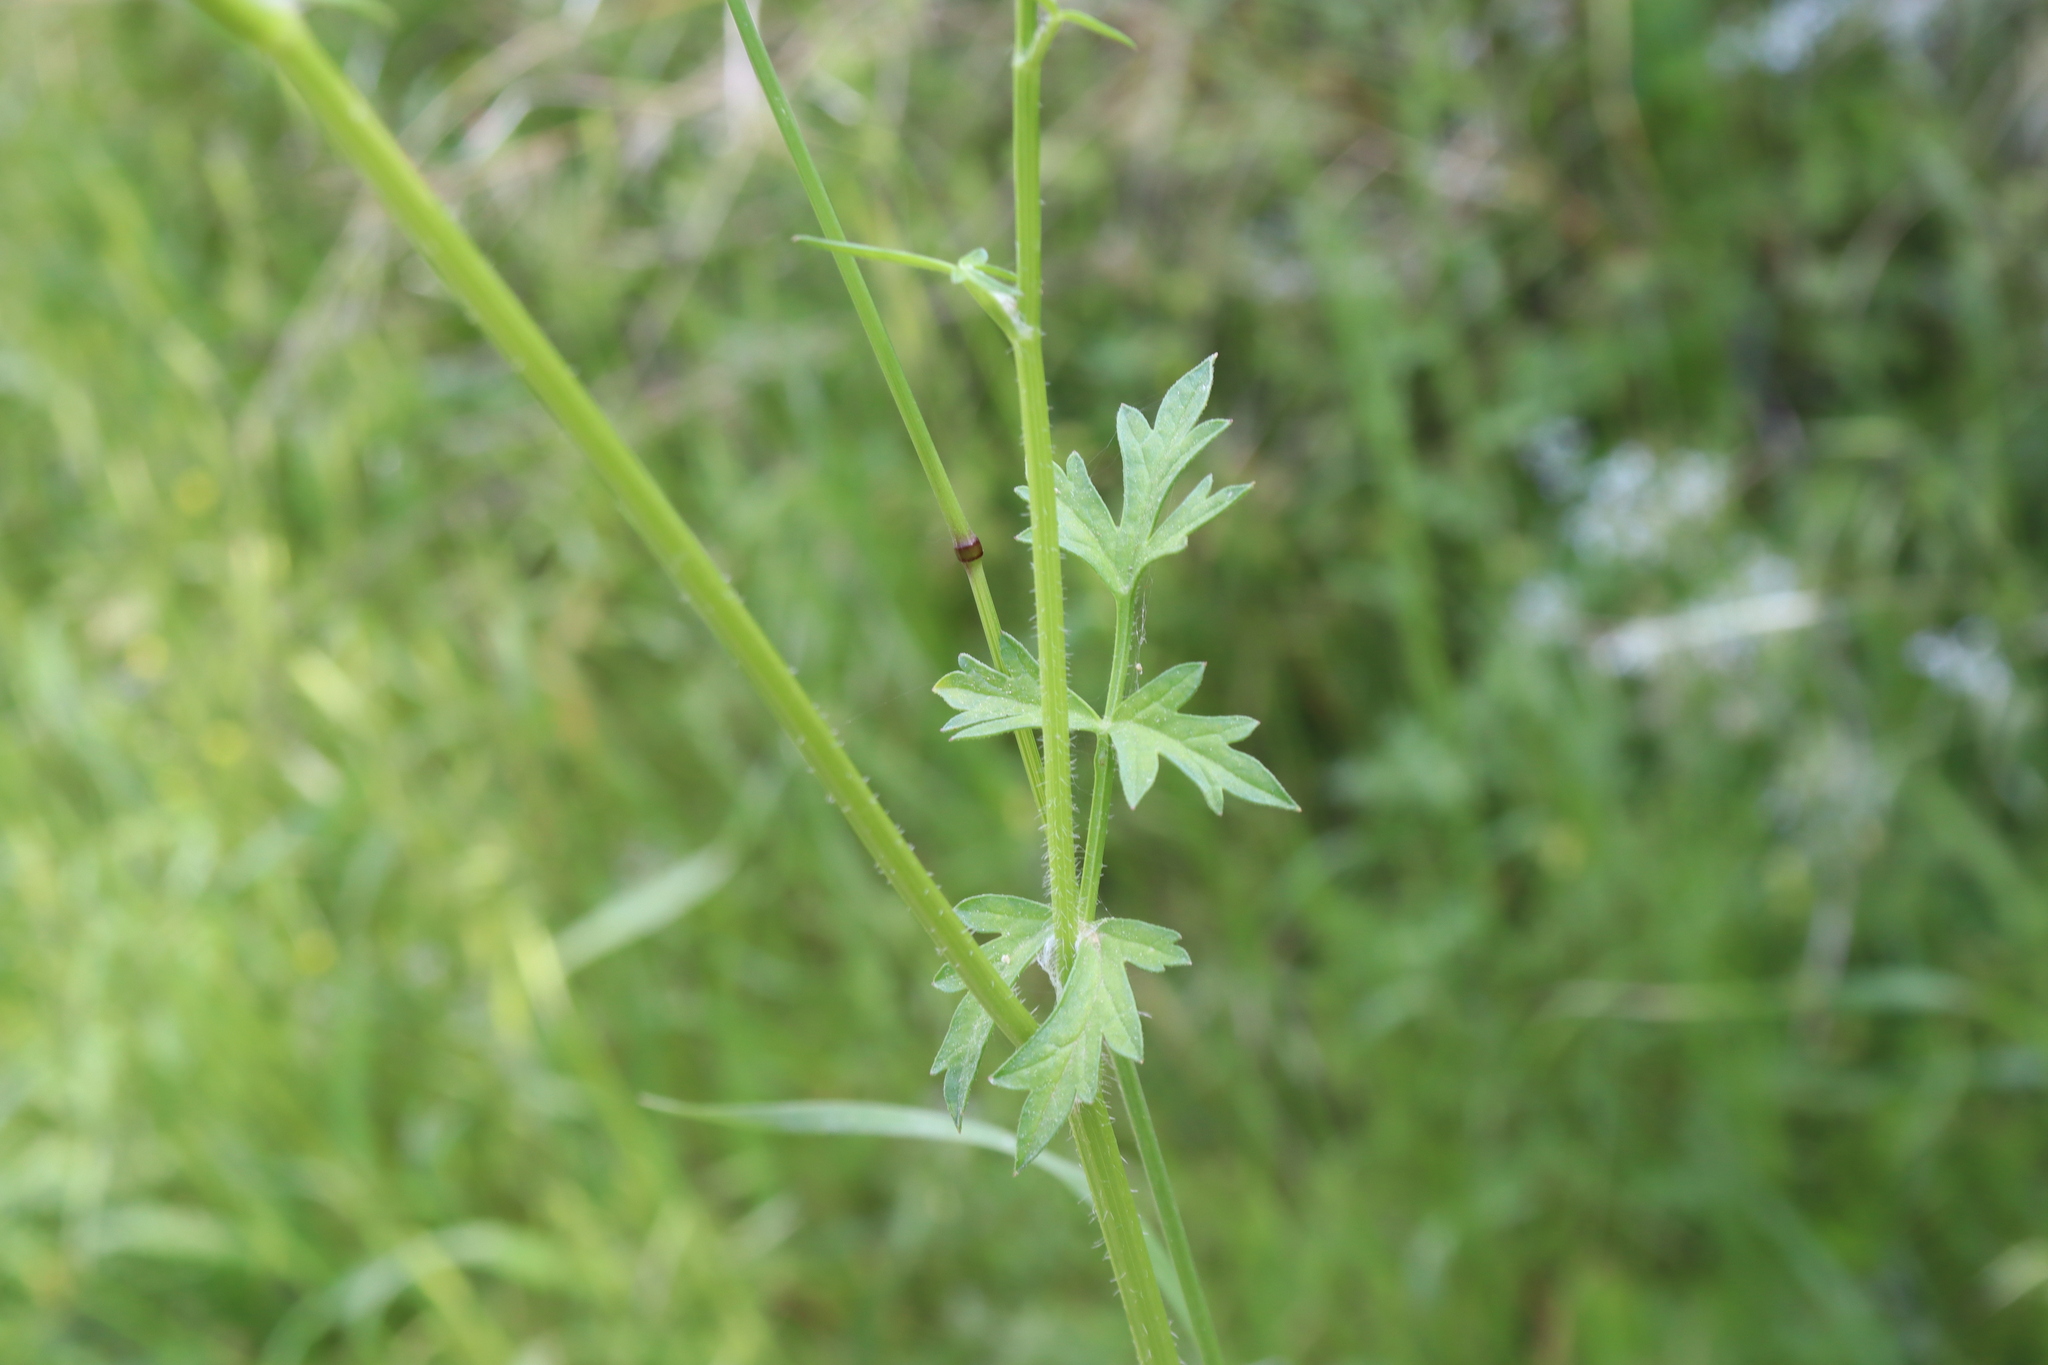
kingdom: Plantae
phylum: Tracheophyta
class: Magnoliopsida
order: Apiales
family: Apiaceae
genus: Tordylium
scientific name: Tordylium apulum
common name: Mediterranean hartwort
